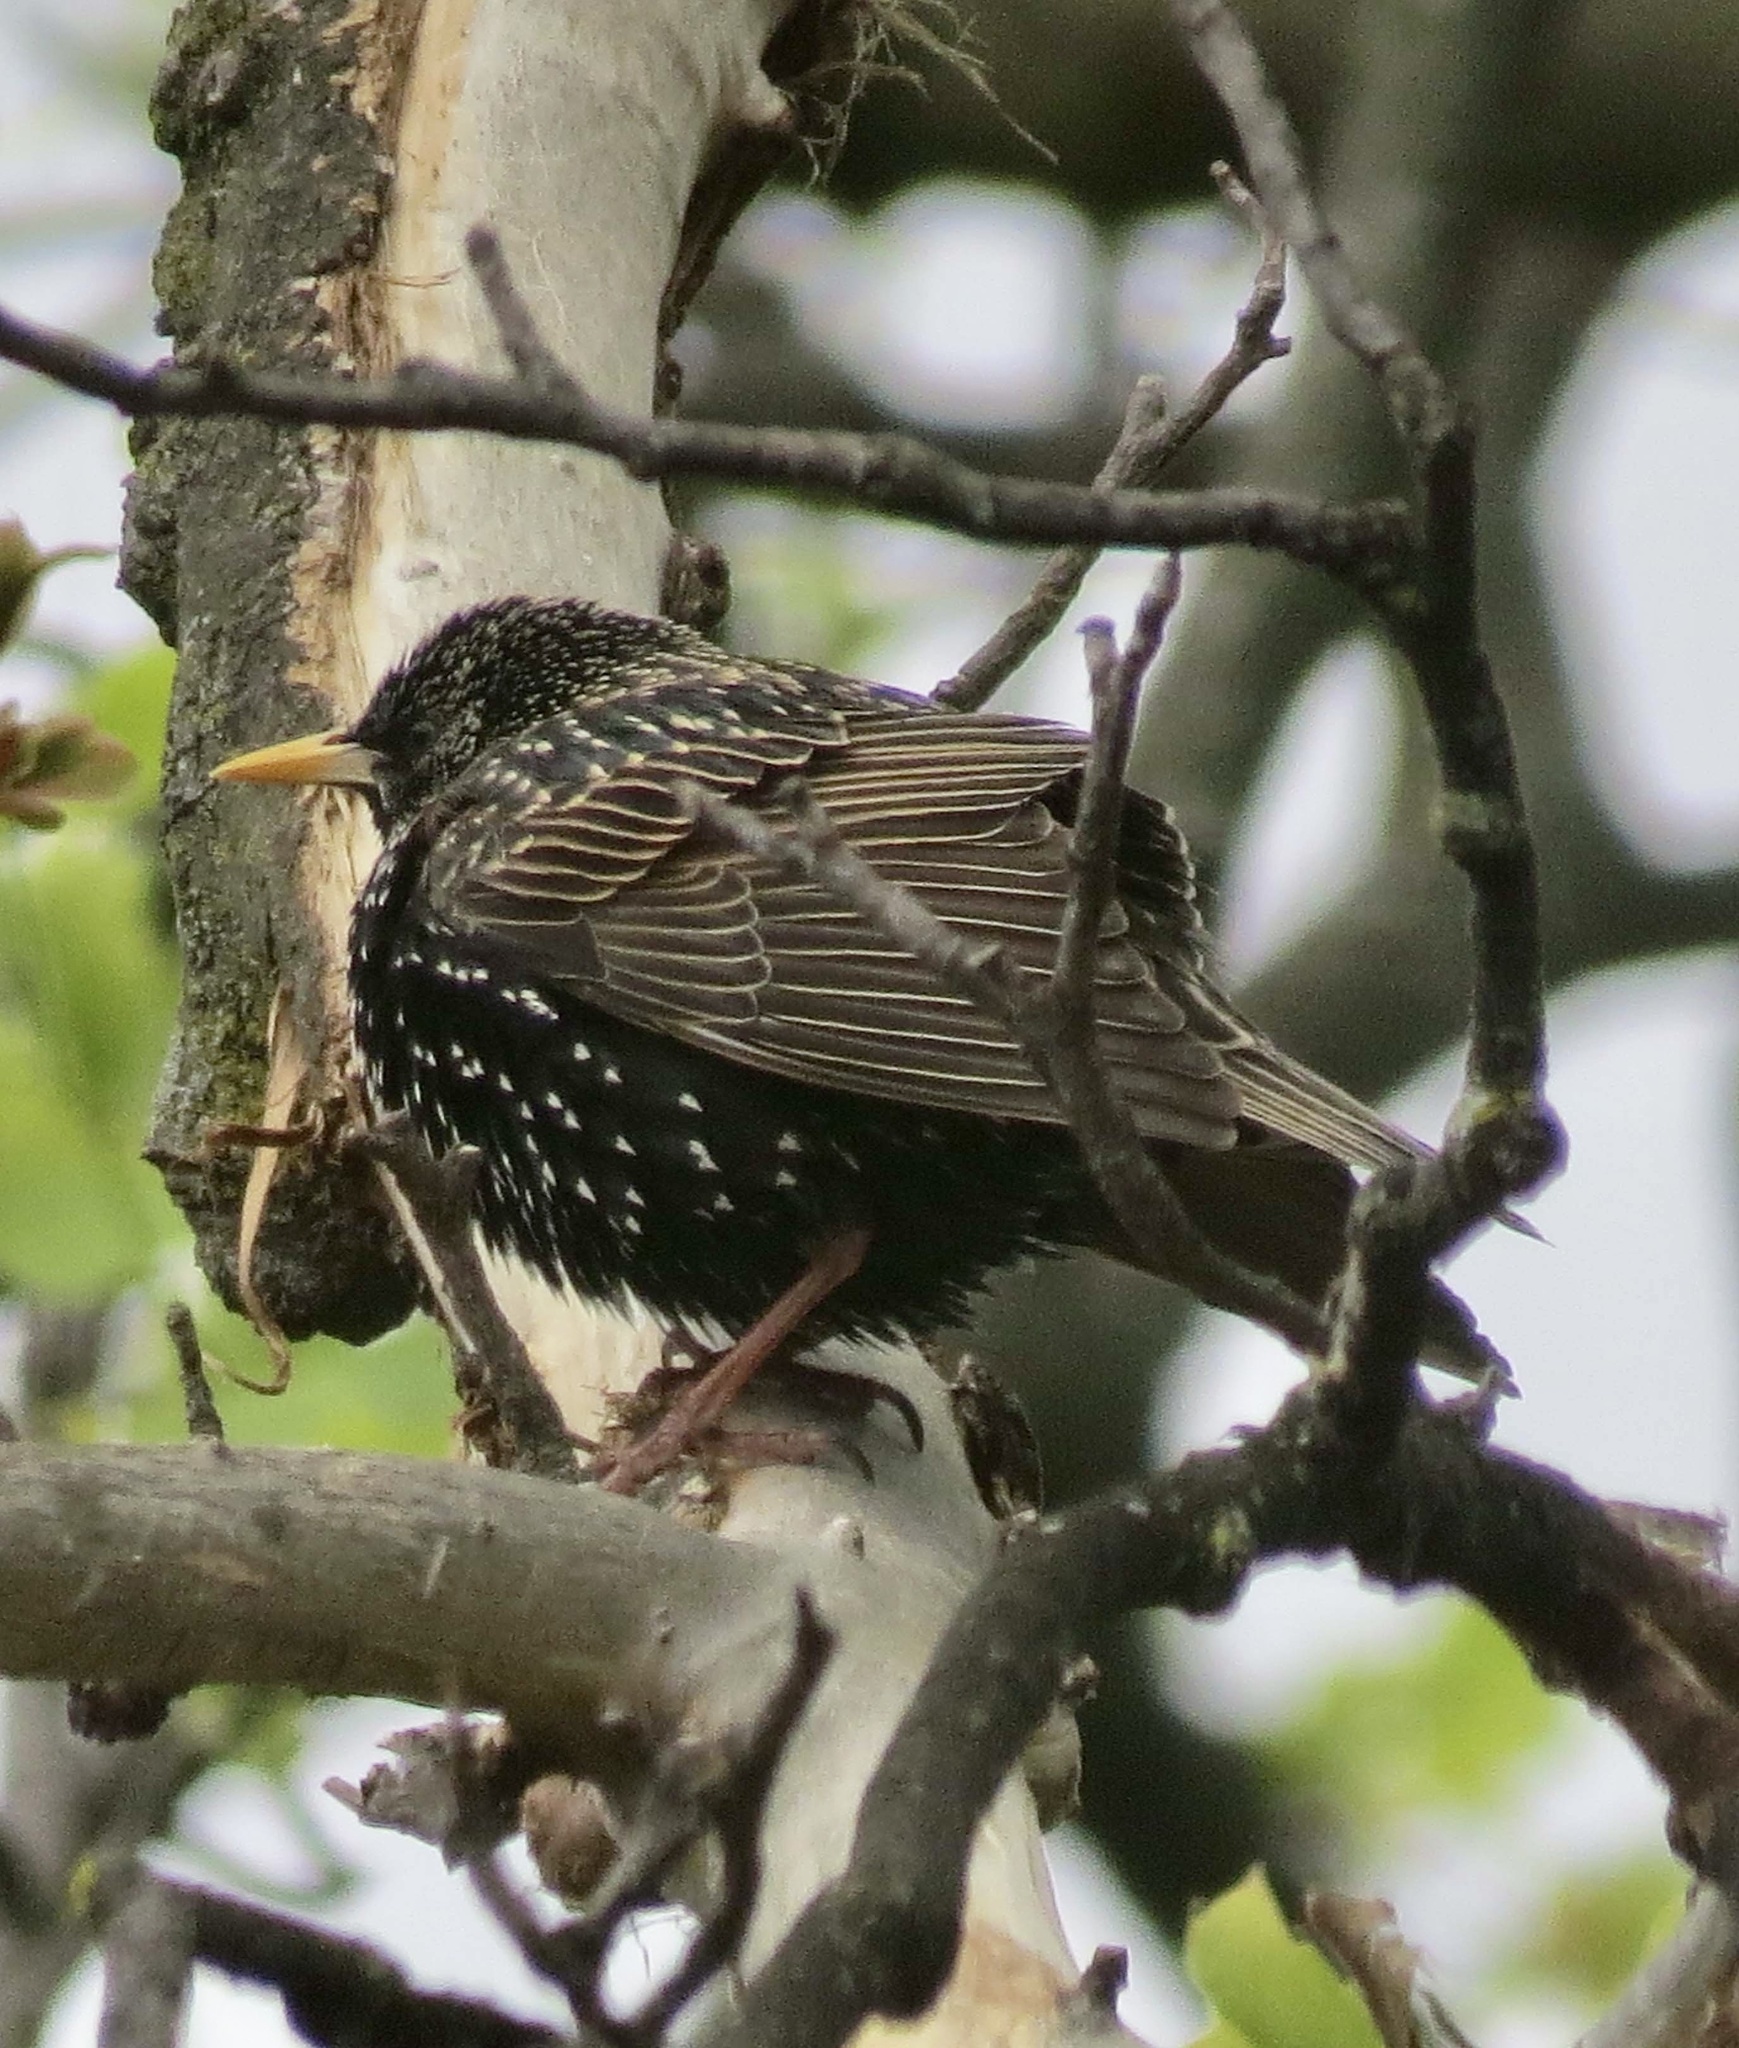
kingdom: Animalia
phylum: Chordata
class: Aves
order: Passeriformes
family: Sturnidae
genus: Sturnus
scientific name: Sturnus vulgaris
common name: Common starling
